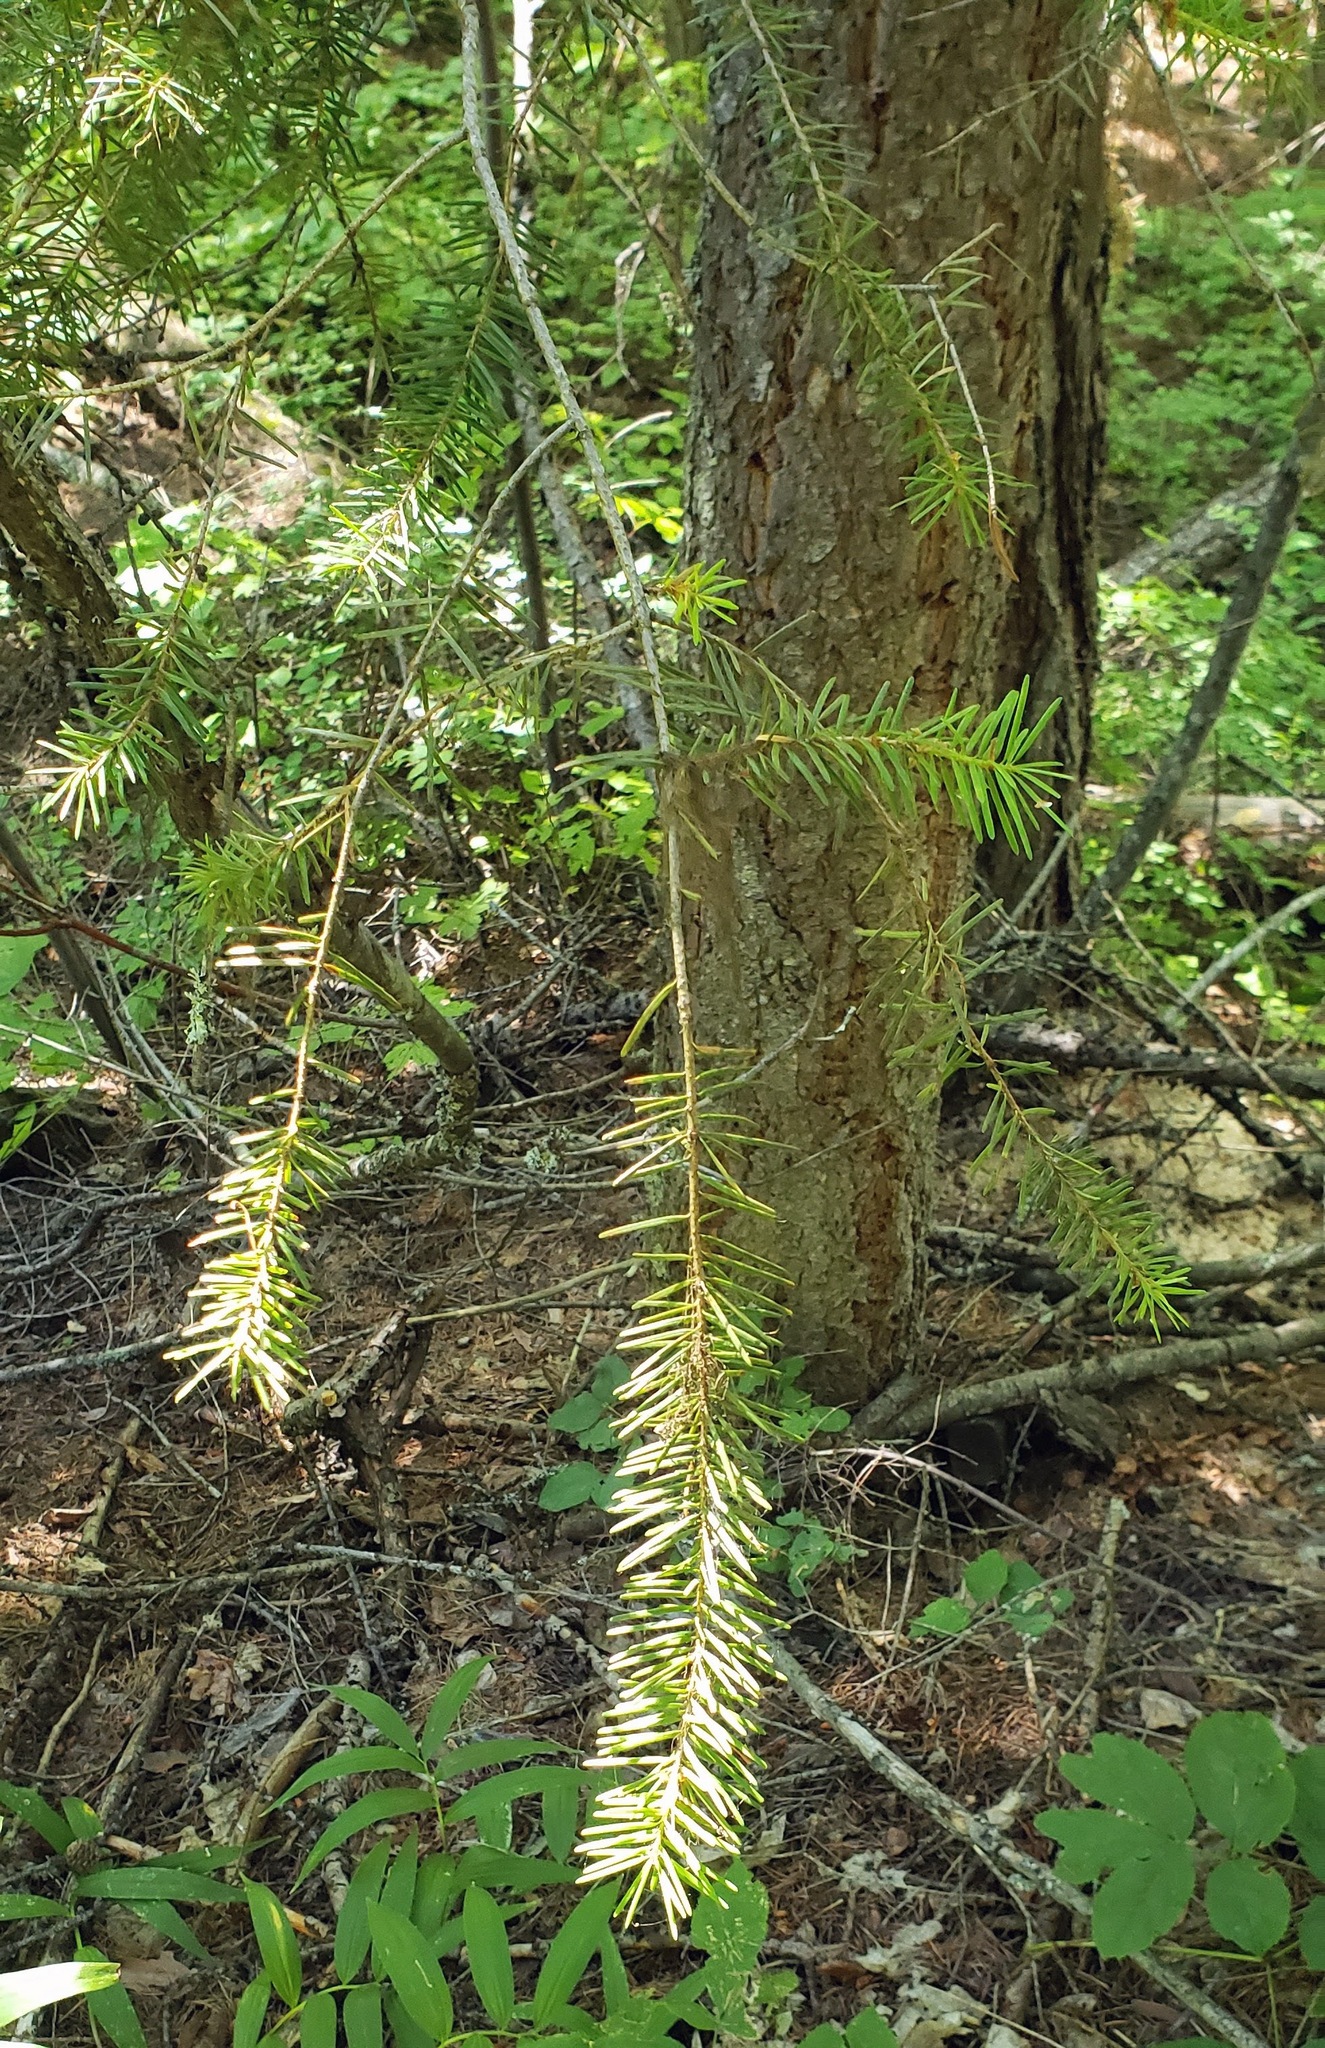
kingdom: Plantae
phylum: Tracheophyta
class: Pinopsida
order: Pinales
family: Pinaceae
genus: Pseudotsuga
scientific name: Pseudotsuga menziesii
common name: Douglas fir
